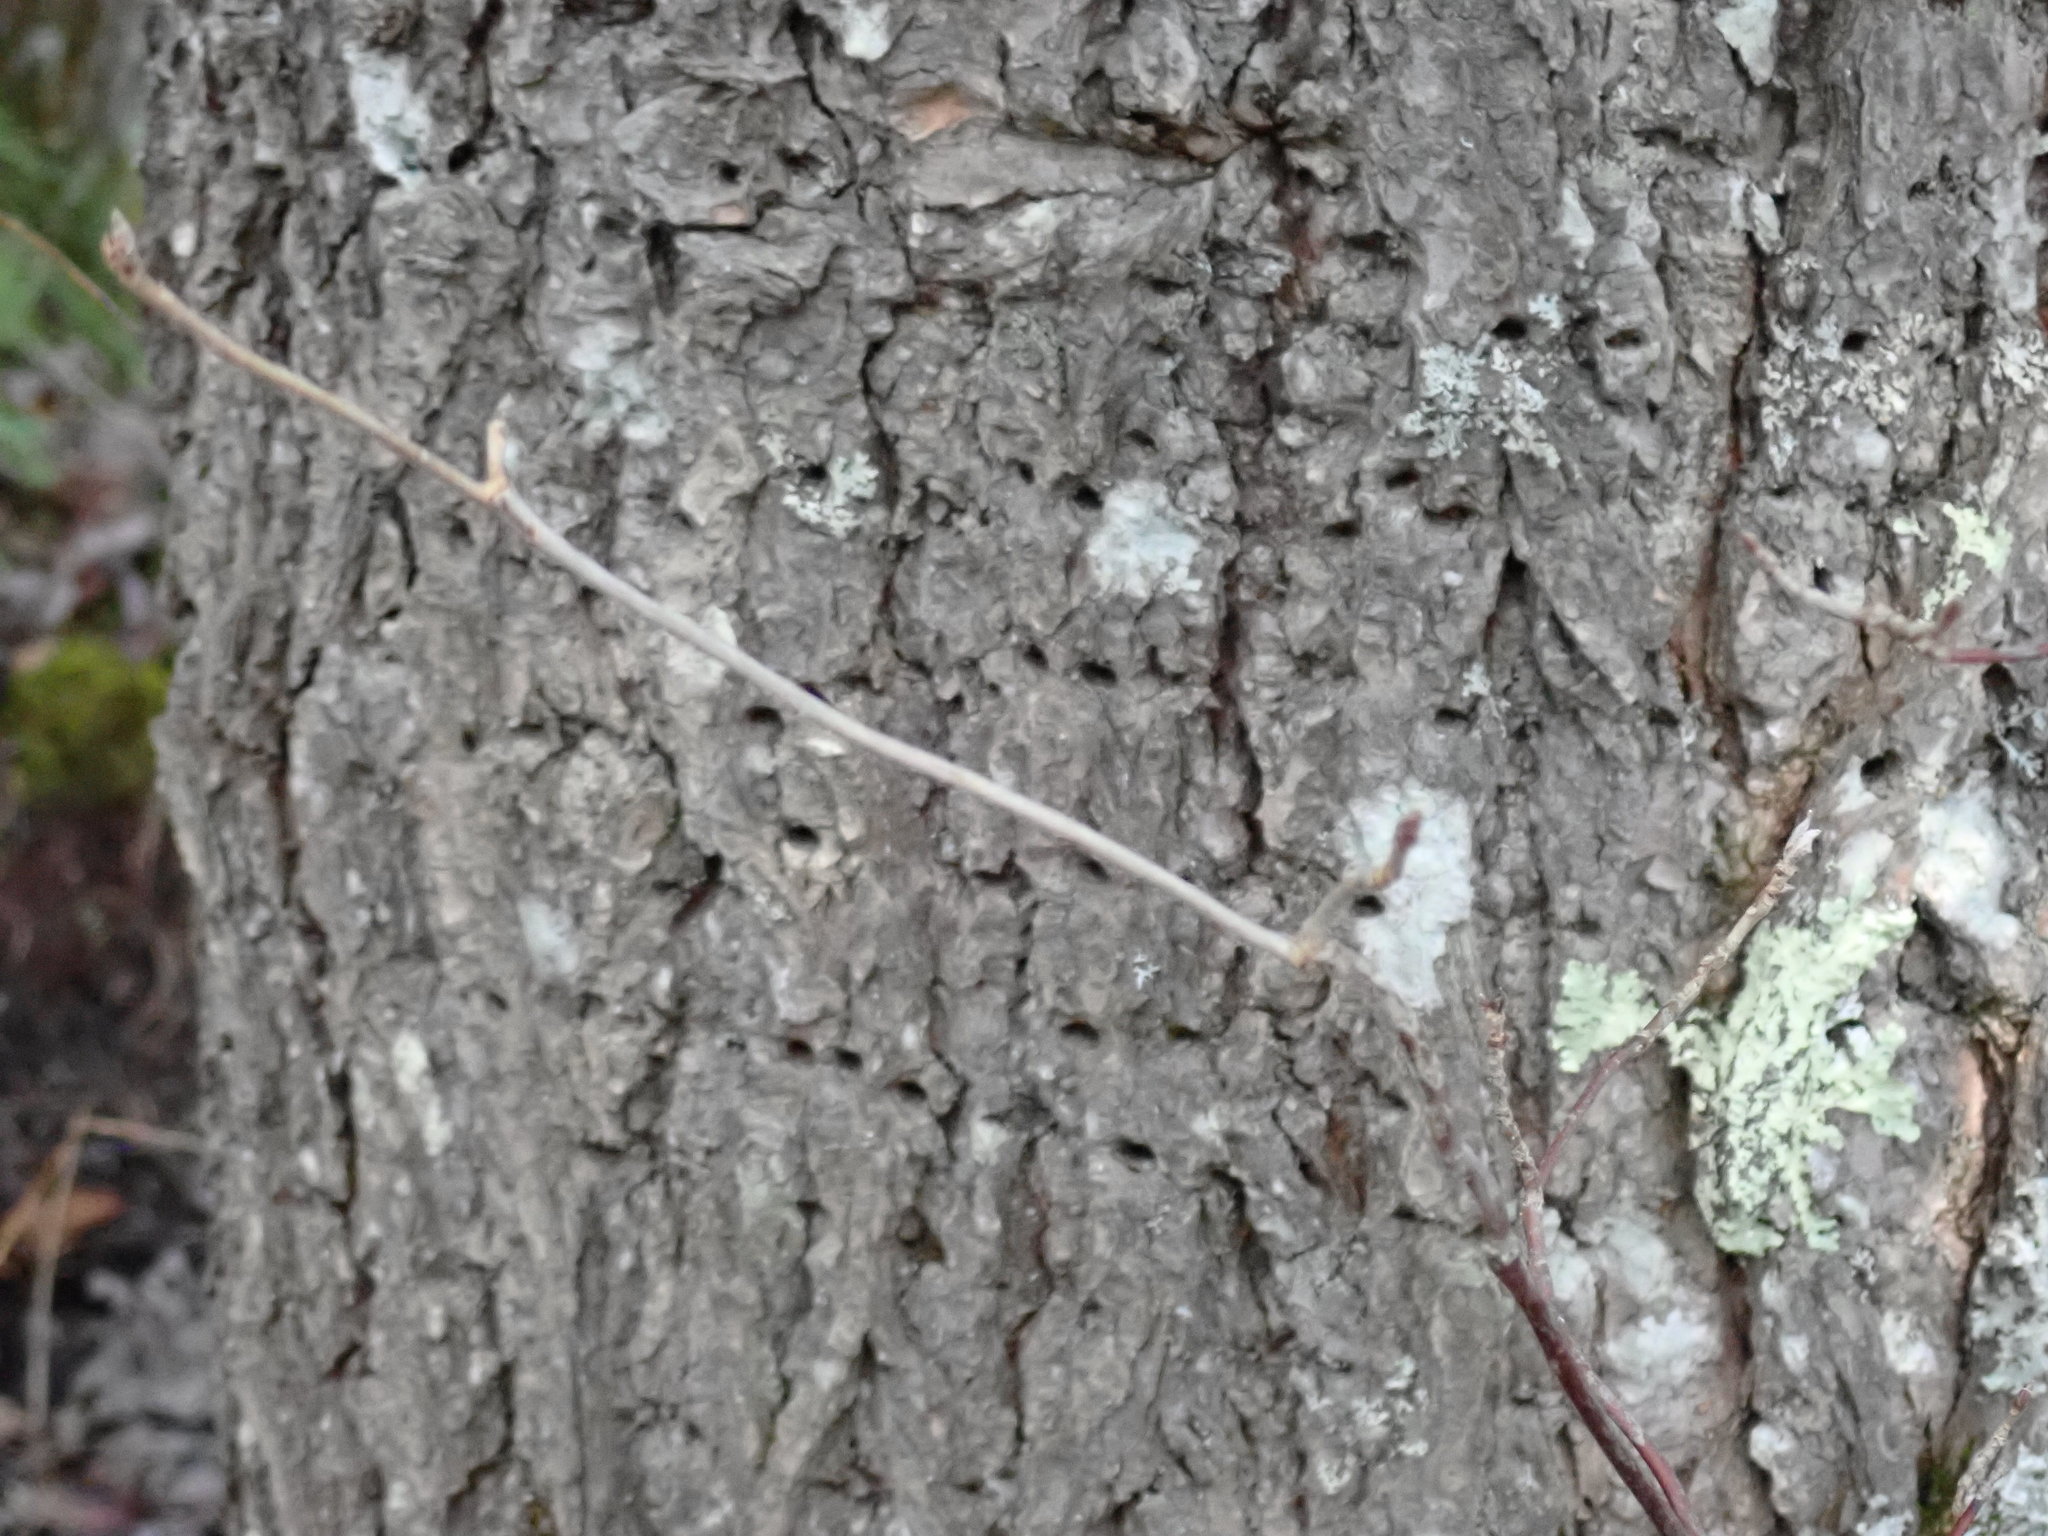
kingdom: Animalia
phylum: Chordata
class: Aves
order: Piciformes
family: Picidae
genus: Sphyrapicus
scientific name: Sphyrapicus varius
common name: Yellow-bellied sapsucker
